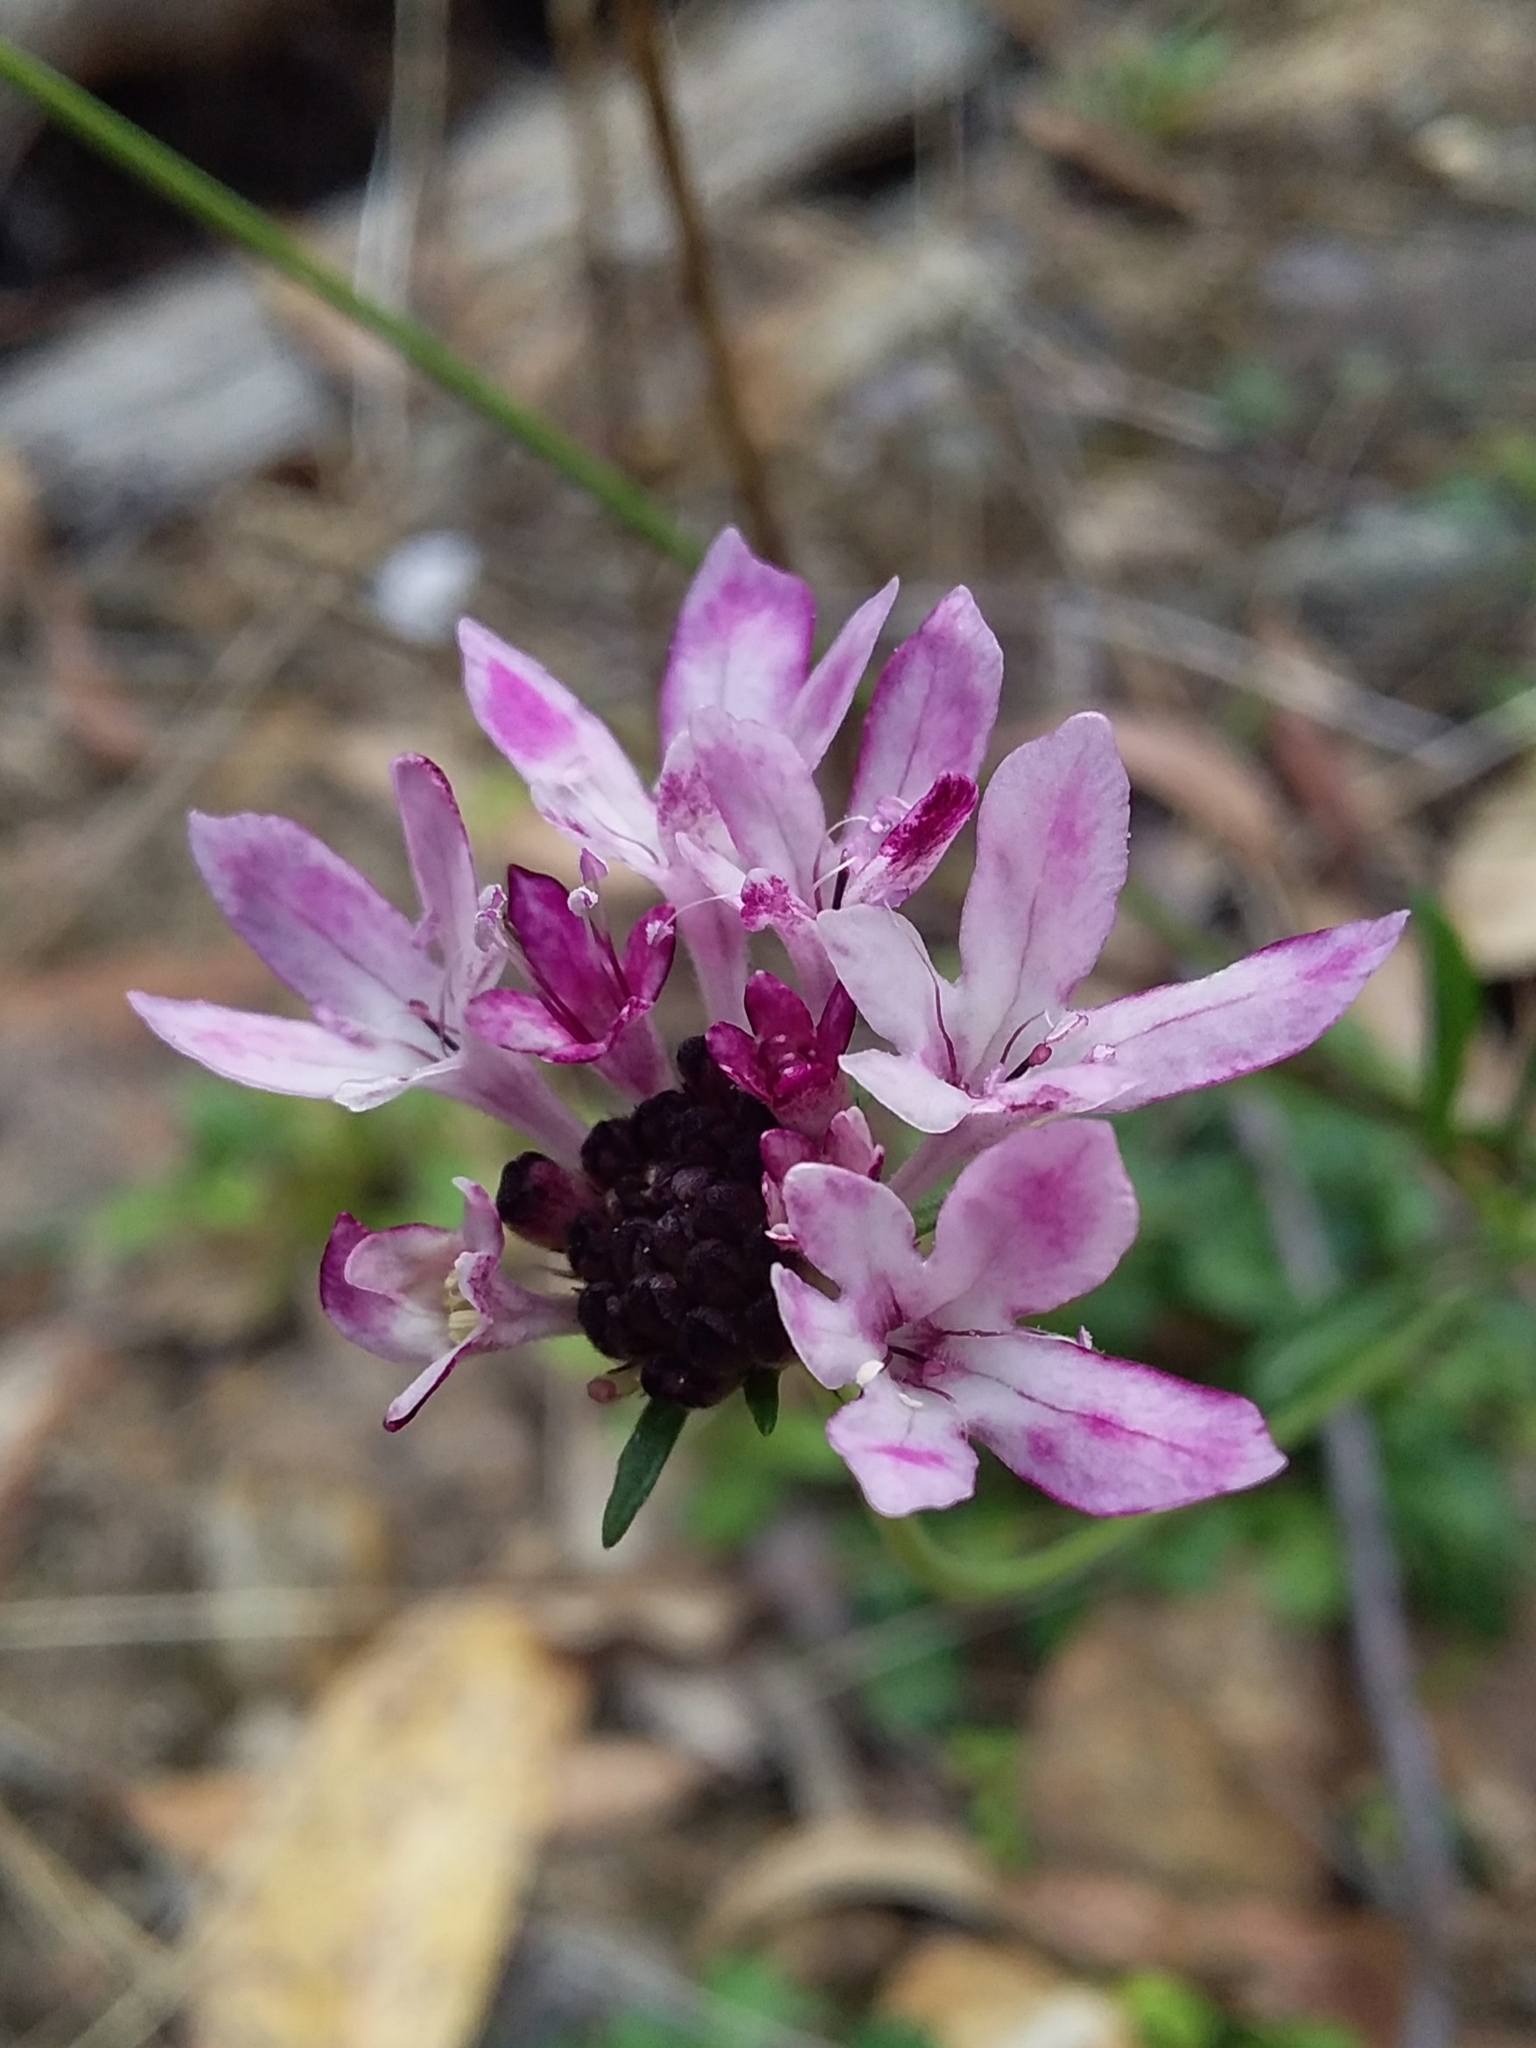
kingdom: Plantae
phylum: Tracheophyta
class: Magnoliopsida
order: Dipsacales
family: Caprifoliaceae
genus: Sixalix
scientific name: Sixalix atropurpurea
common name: Sweet scabious
